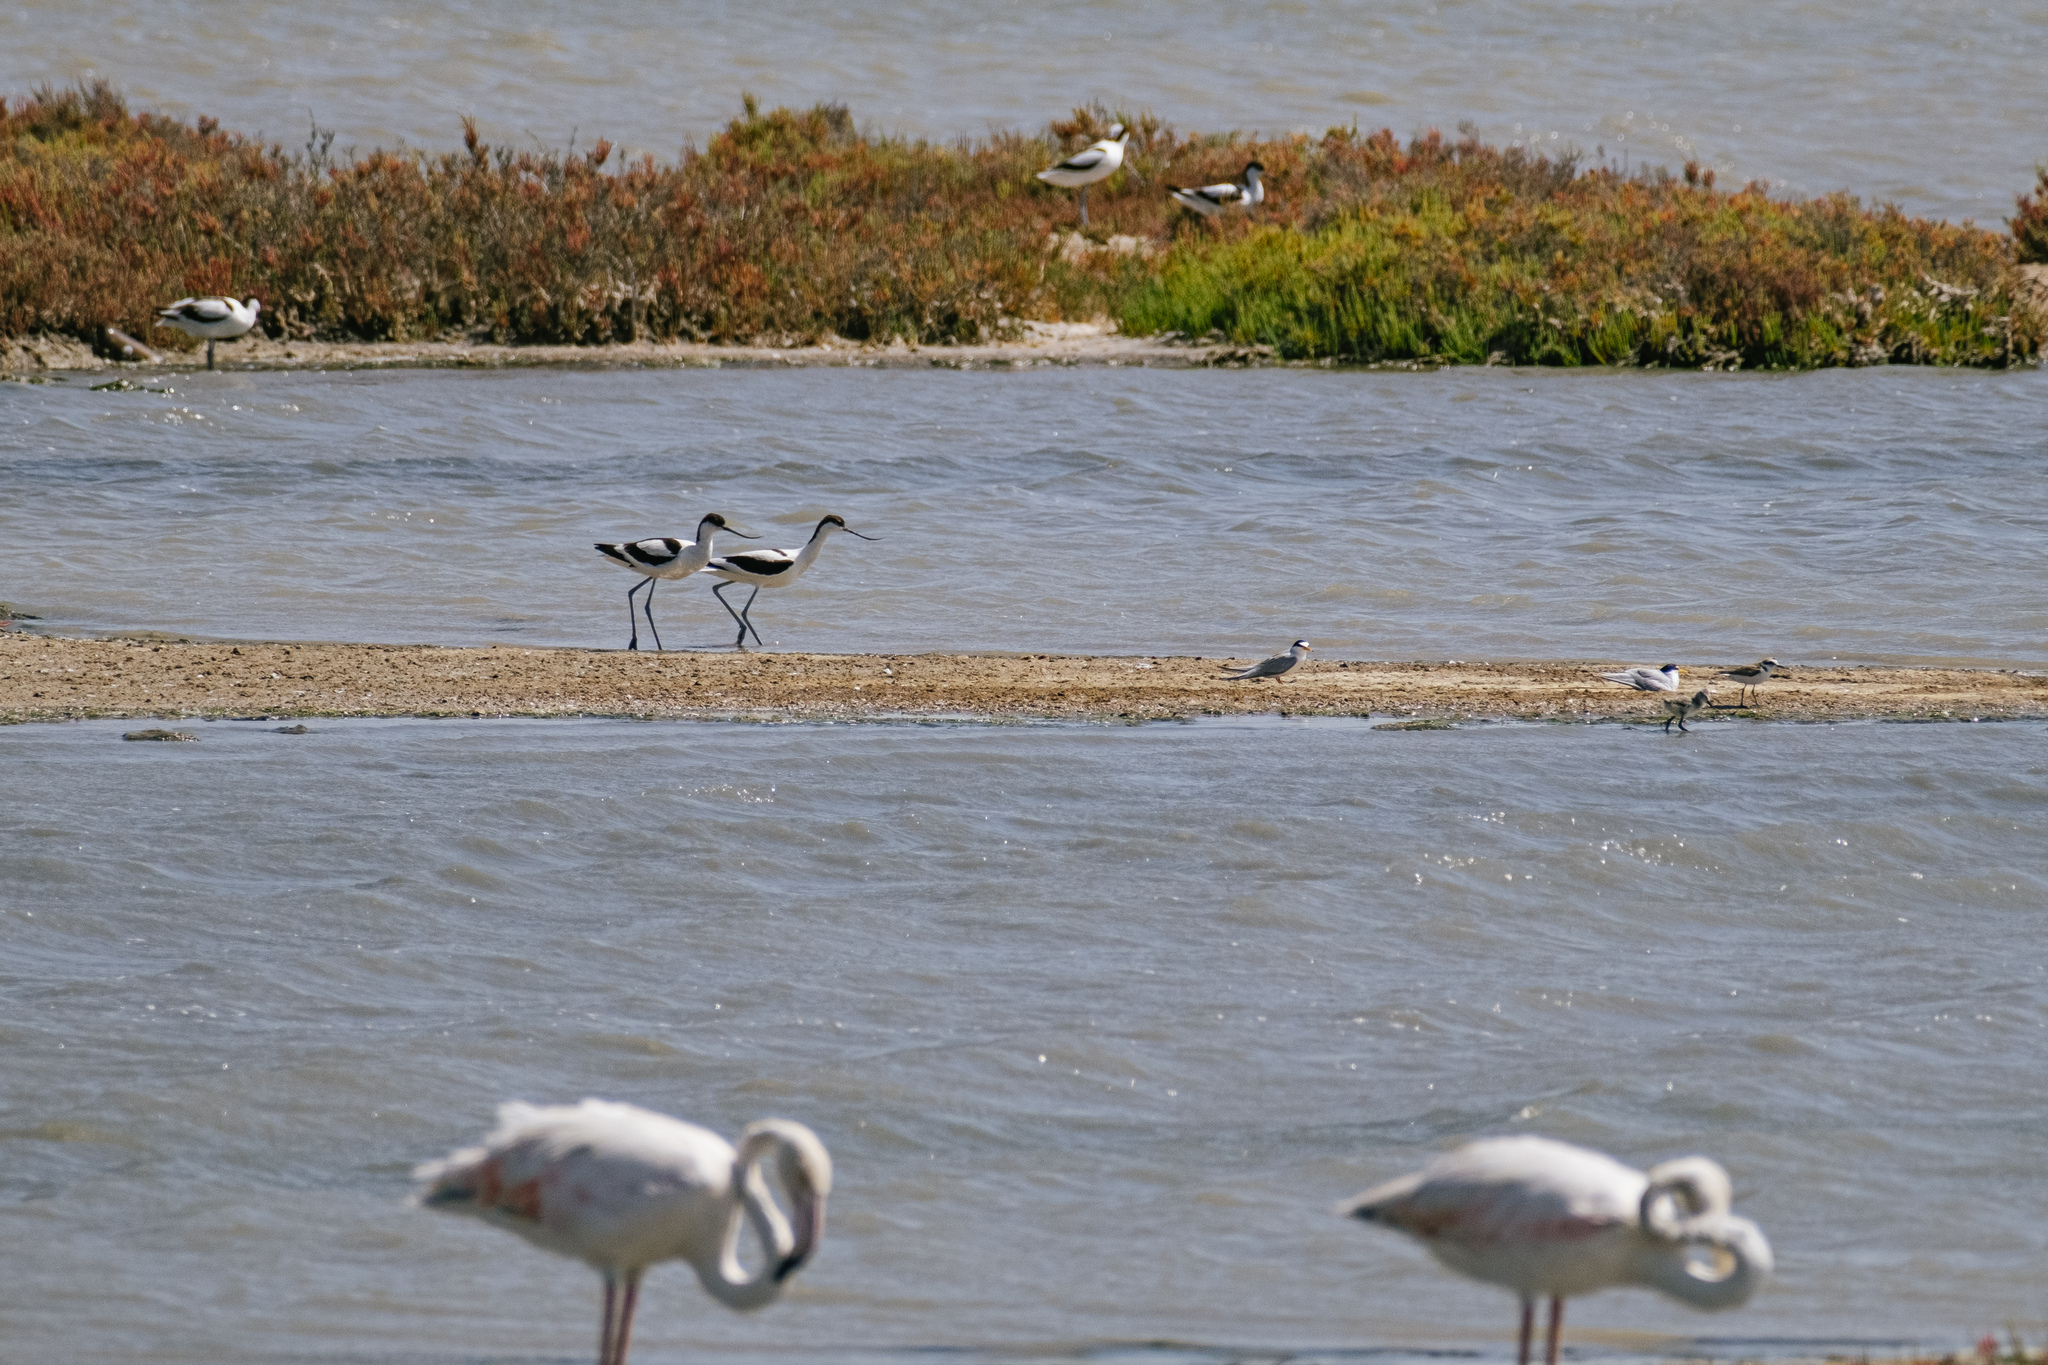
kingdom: Animalia
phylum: Chordata
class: Aves
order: Charadriiformes
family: Recurvirostridae
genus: Recurvirostra
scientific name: Recurvirostra avosetta
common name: Pied avocet
